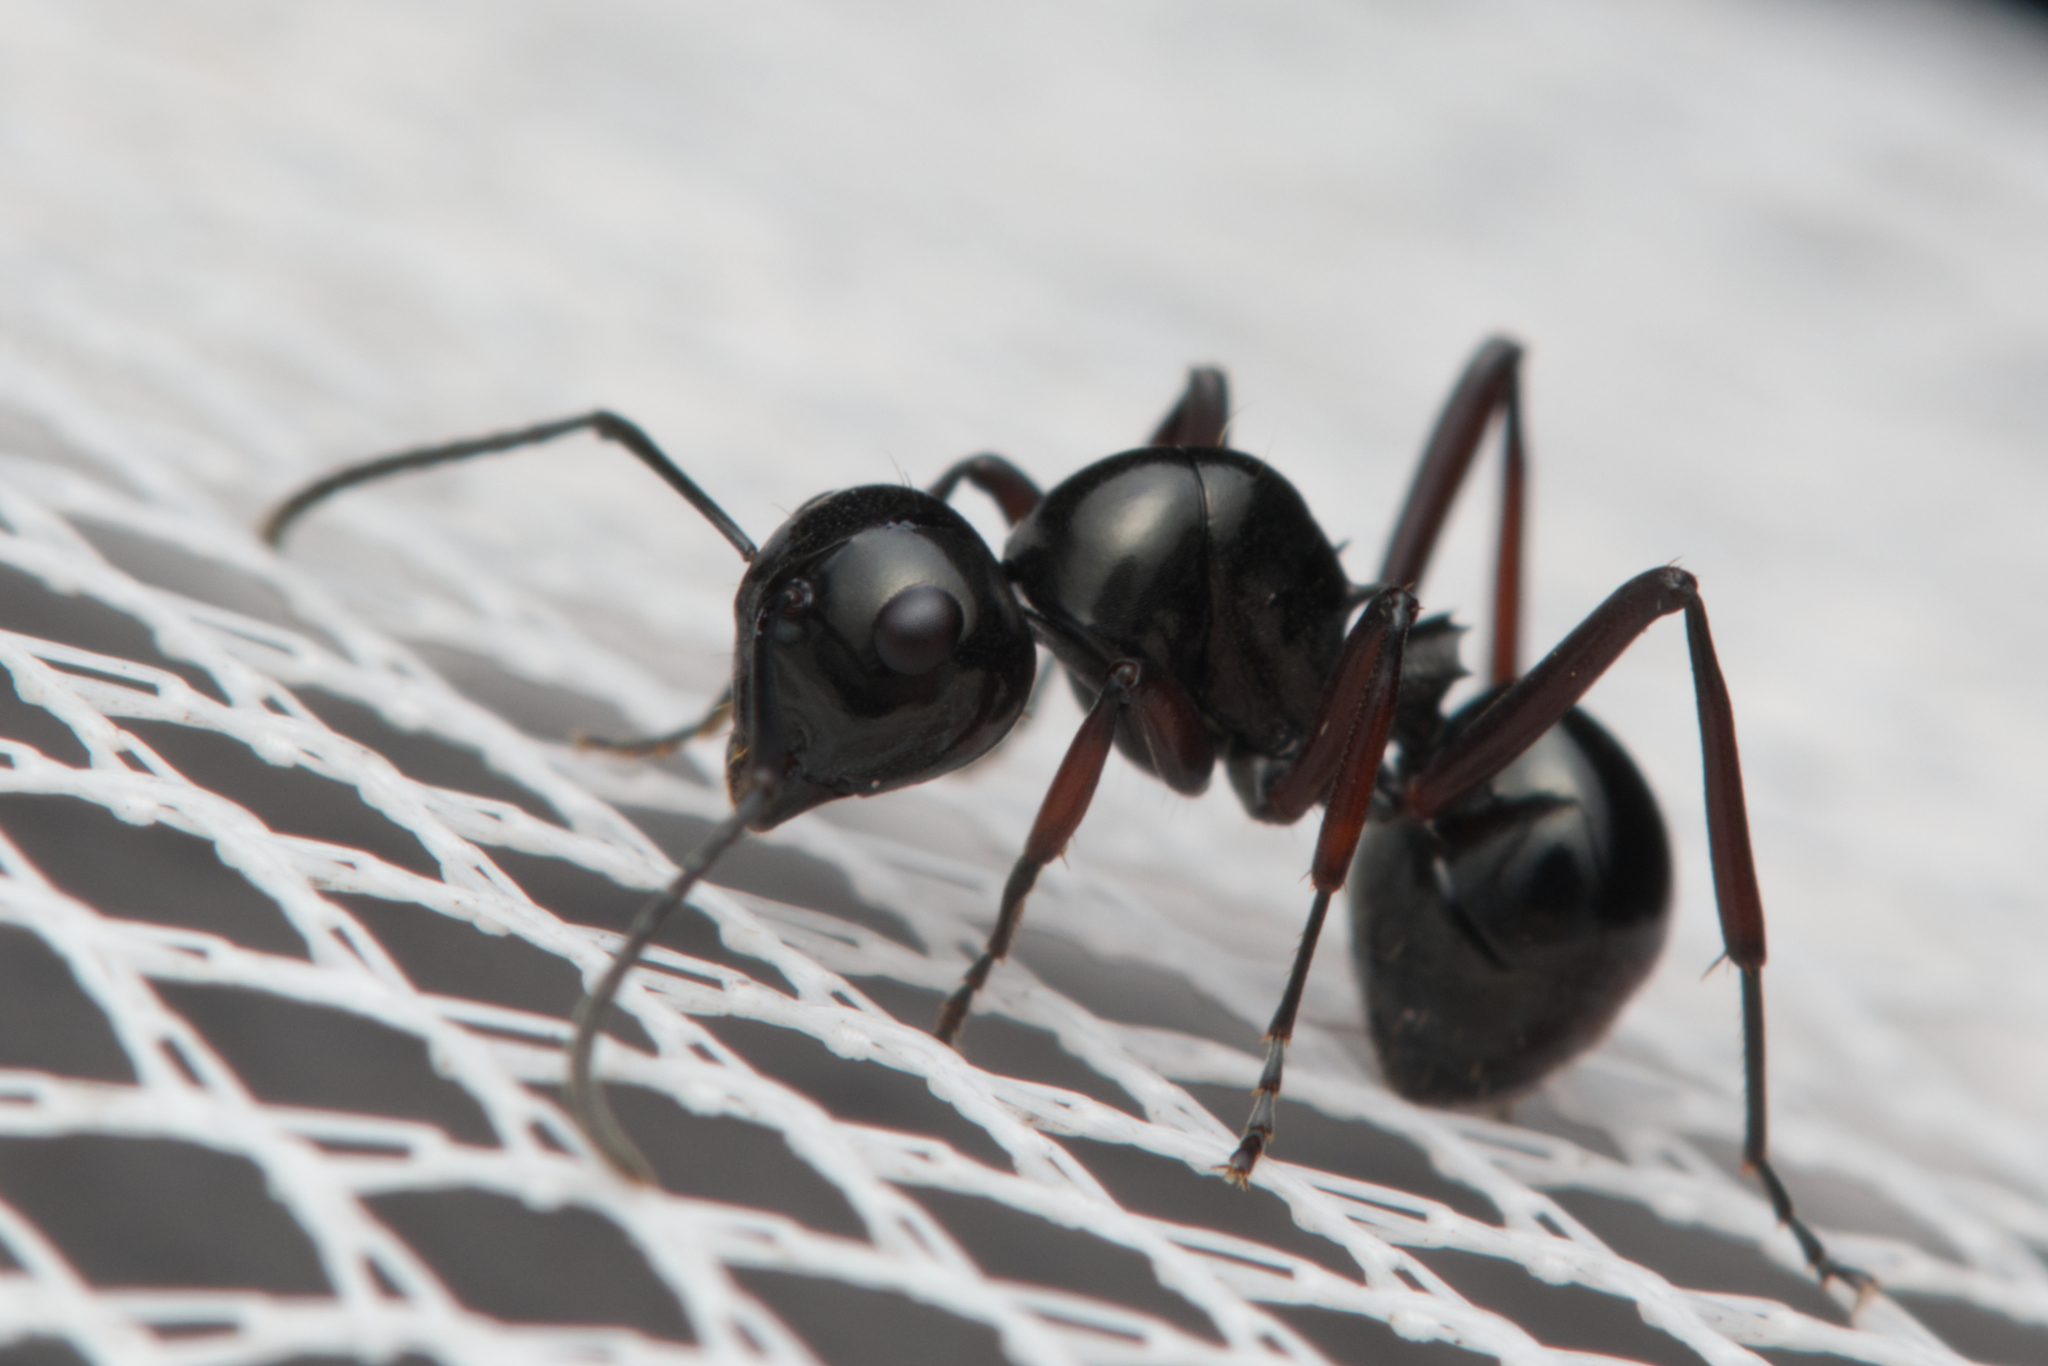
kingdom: Animalia
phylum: Arthropoda
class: Insecta
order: Hymenoptera
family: Formicidae
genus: Polyrhachis
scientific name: Polyrhachis australis
